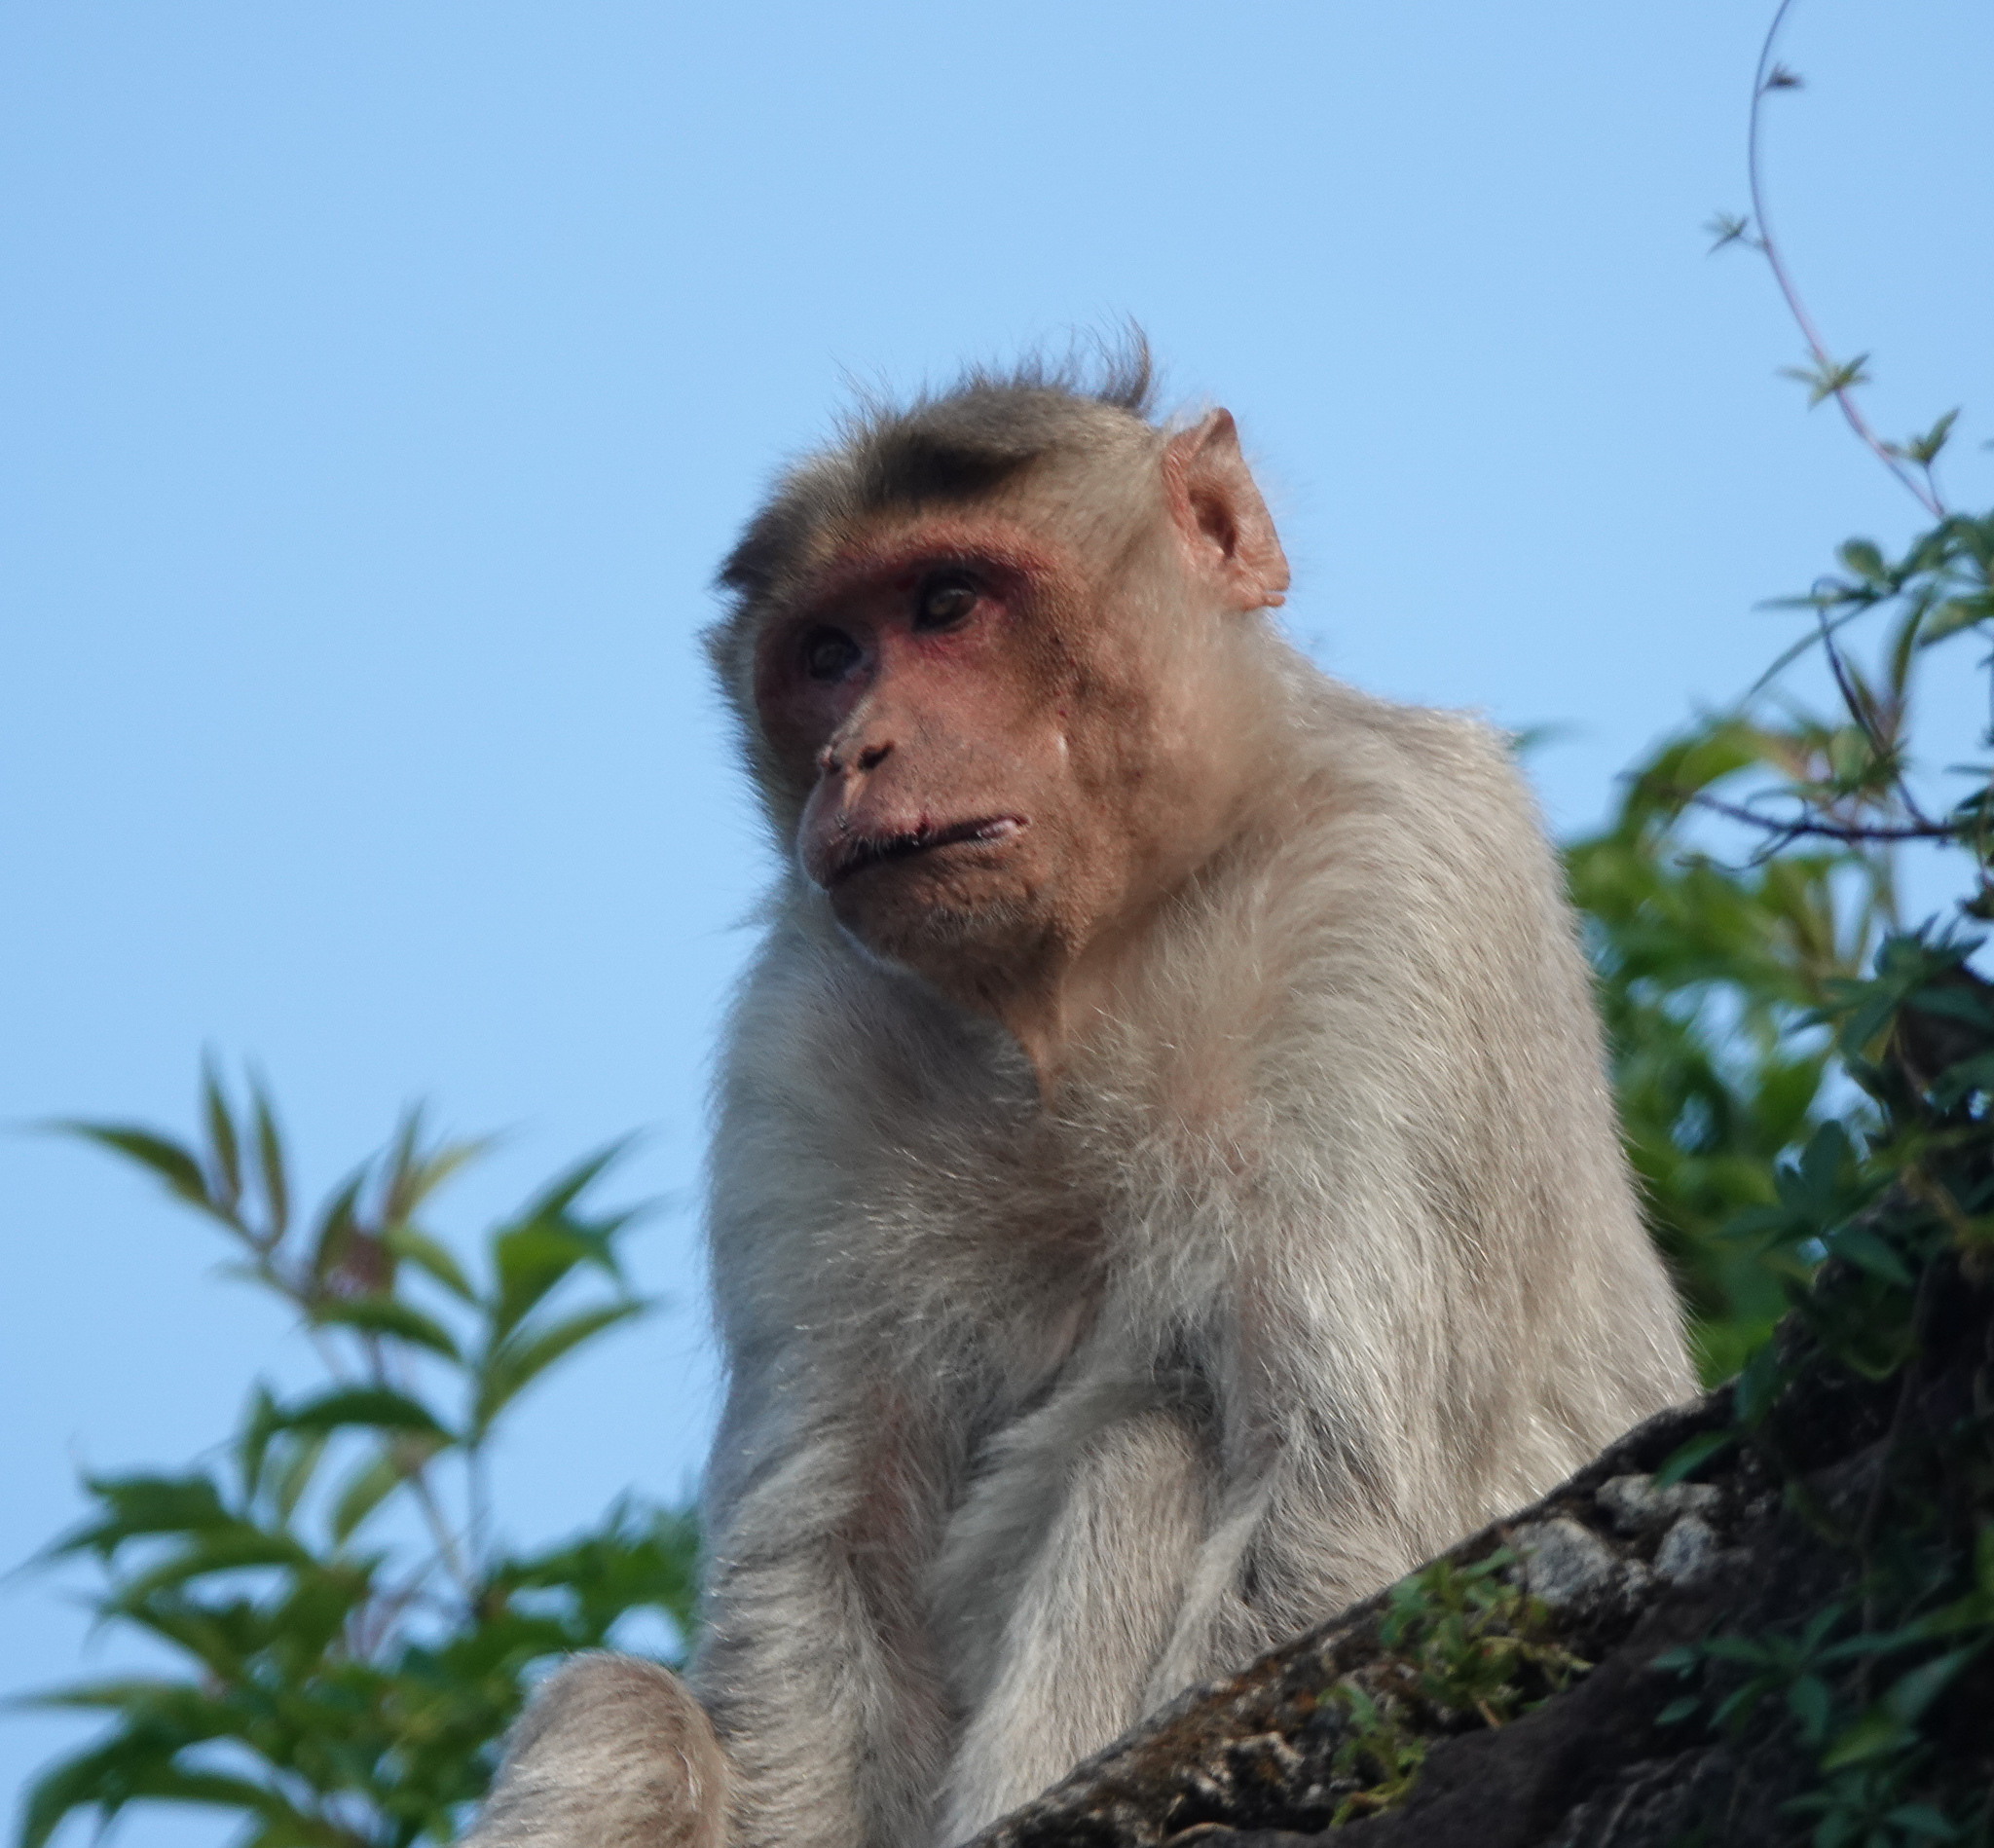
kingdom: Animalia
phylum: Chordata
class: Mammalia
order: Primates
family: Cercopithecidae
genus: Macaca
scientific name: Macaca radiata
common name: Bonnet macaque
